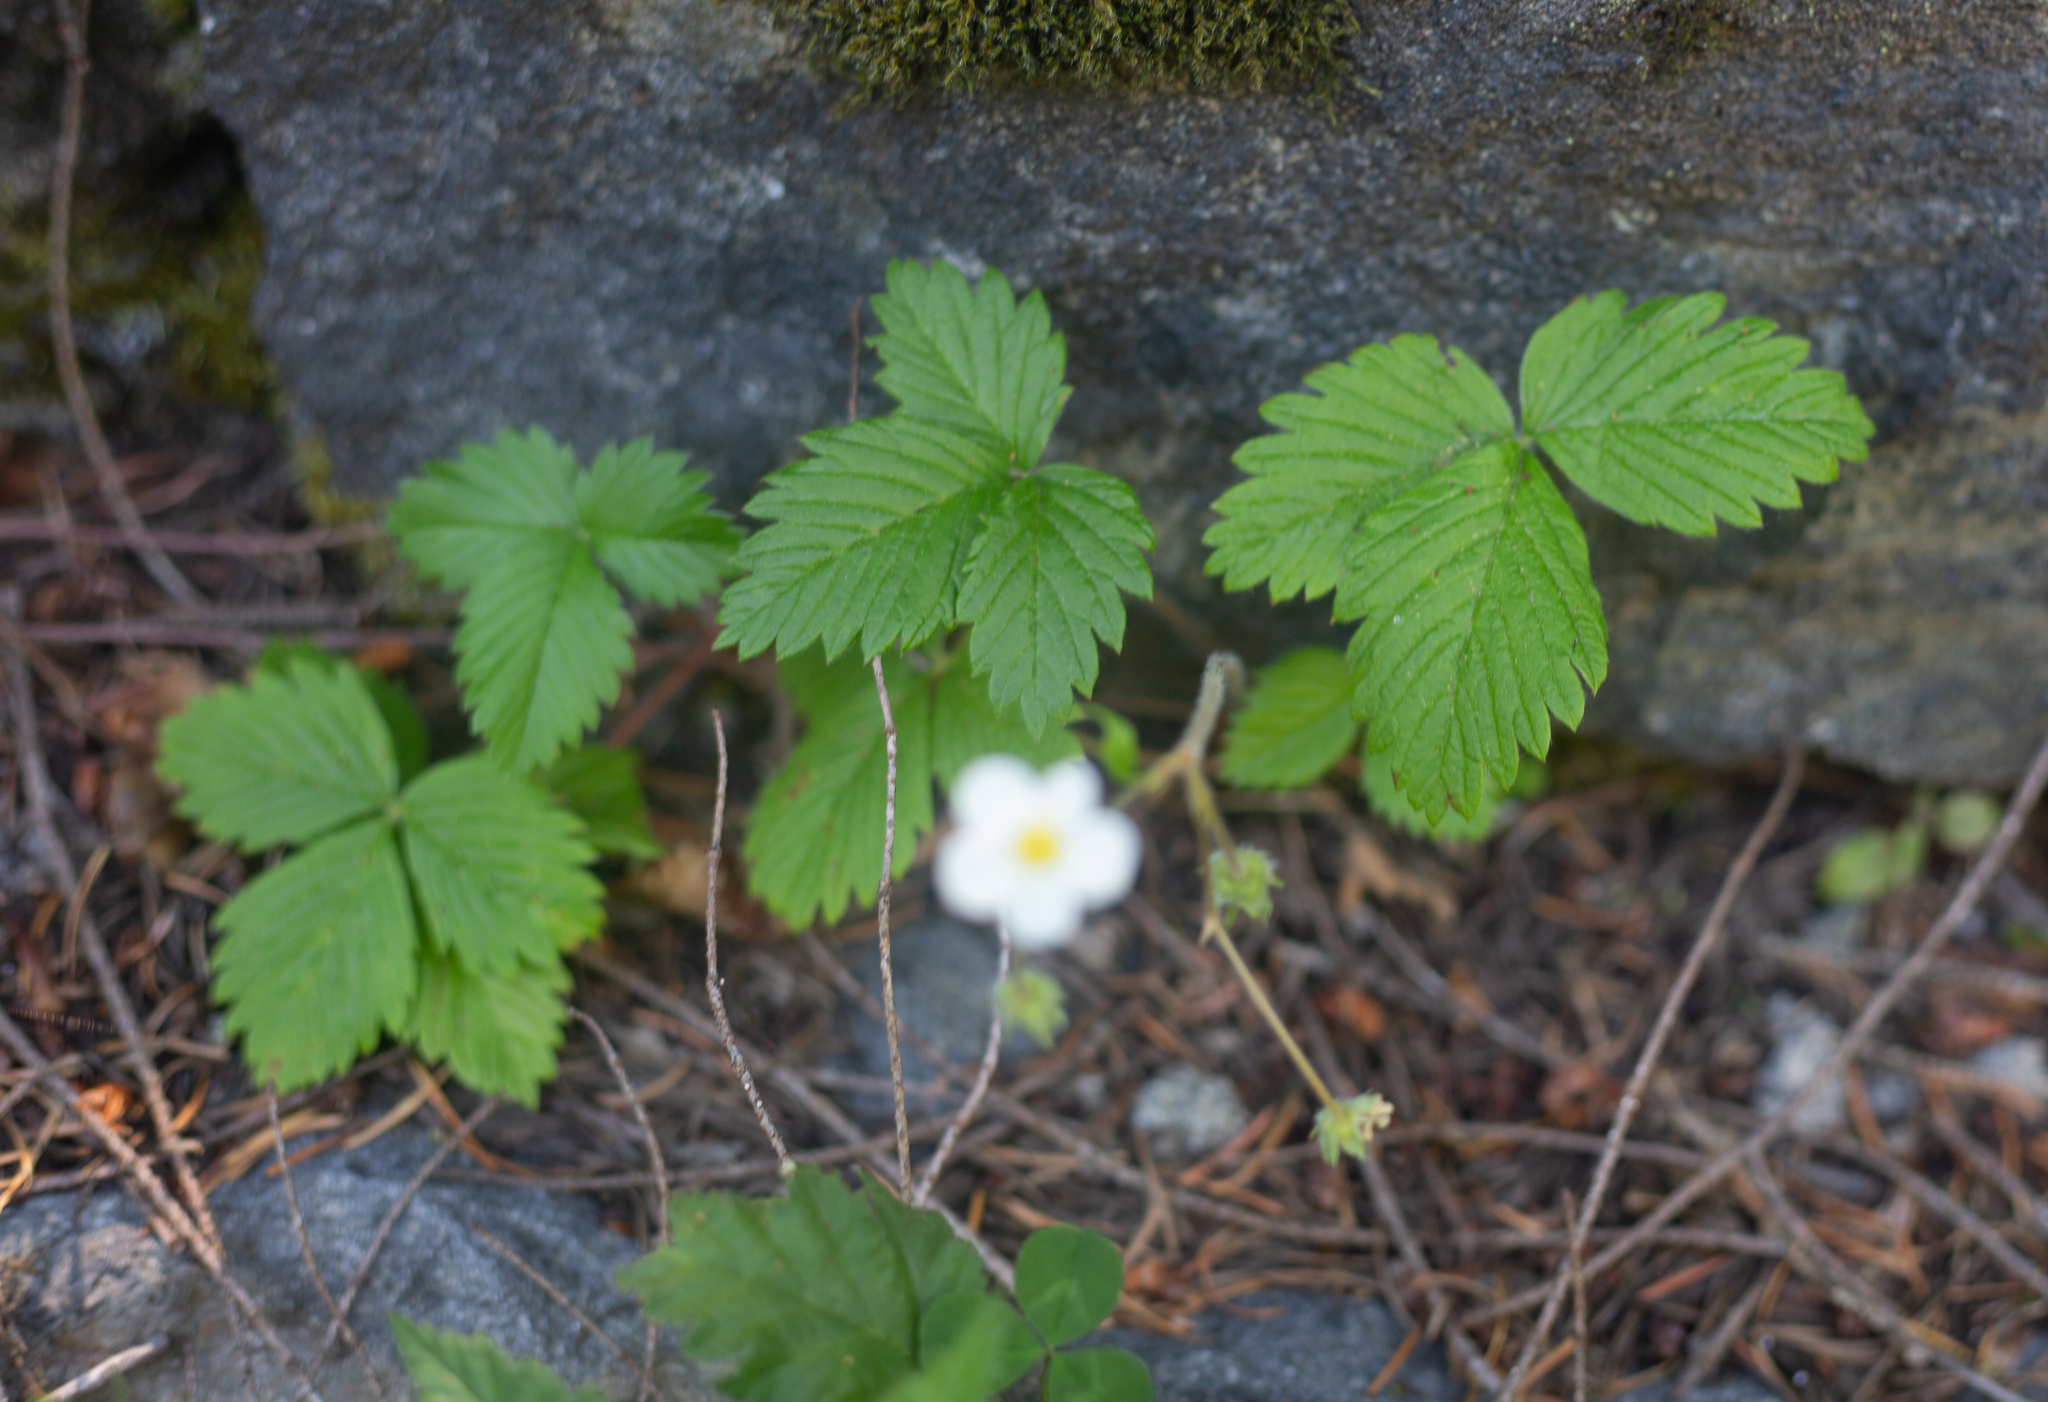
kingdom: Plantae
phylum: Tracheophyta
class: Magnoliopsida
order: Rosales
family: Rosaceae
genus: Fragaria
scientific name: Fragaria vesca
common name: Wild strawberry
